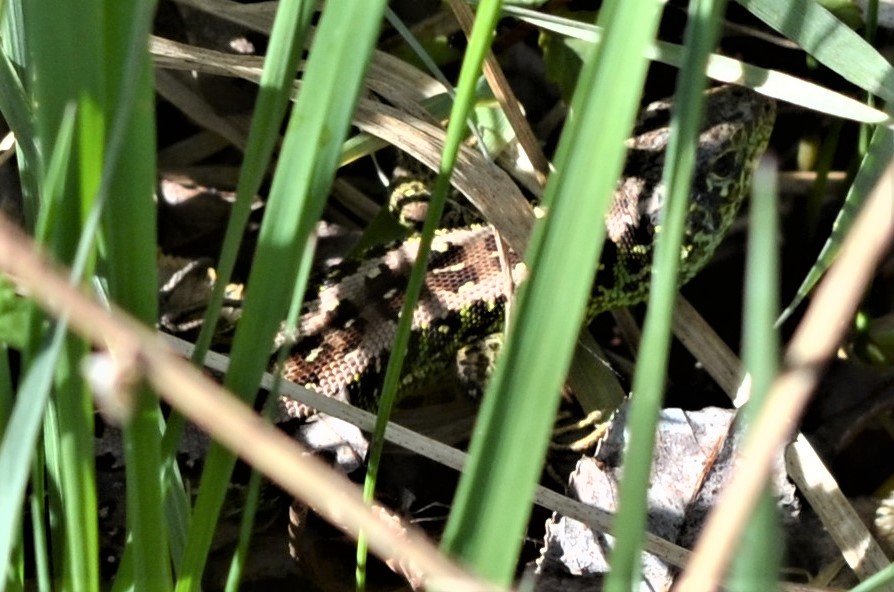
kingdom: Animalia
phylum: Chordata
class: Squamata
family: Lacertidae
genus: Lacerta
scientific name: Lacerta agilis
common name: Sand lizard
